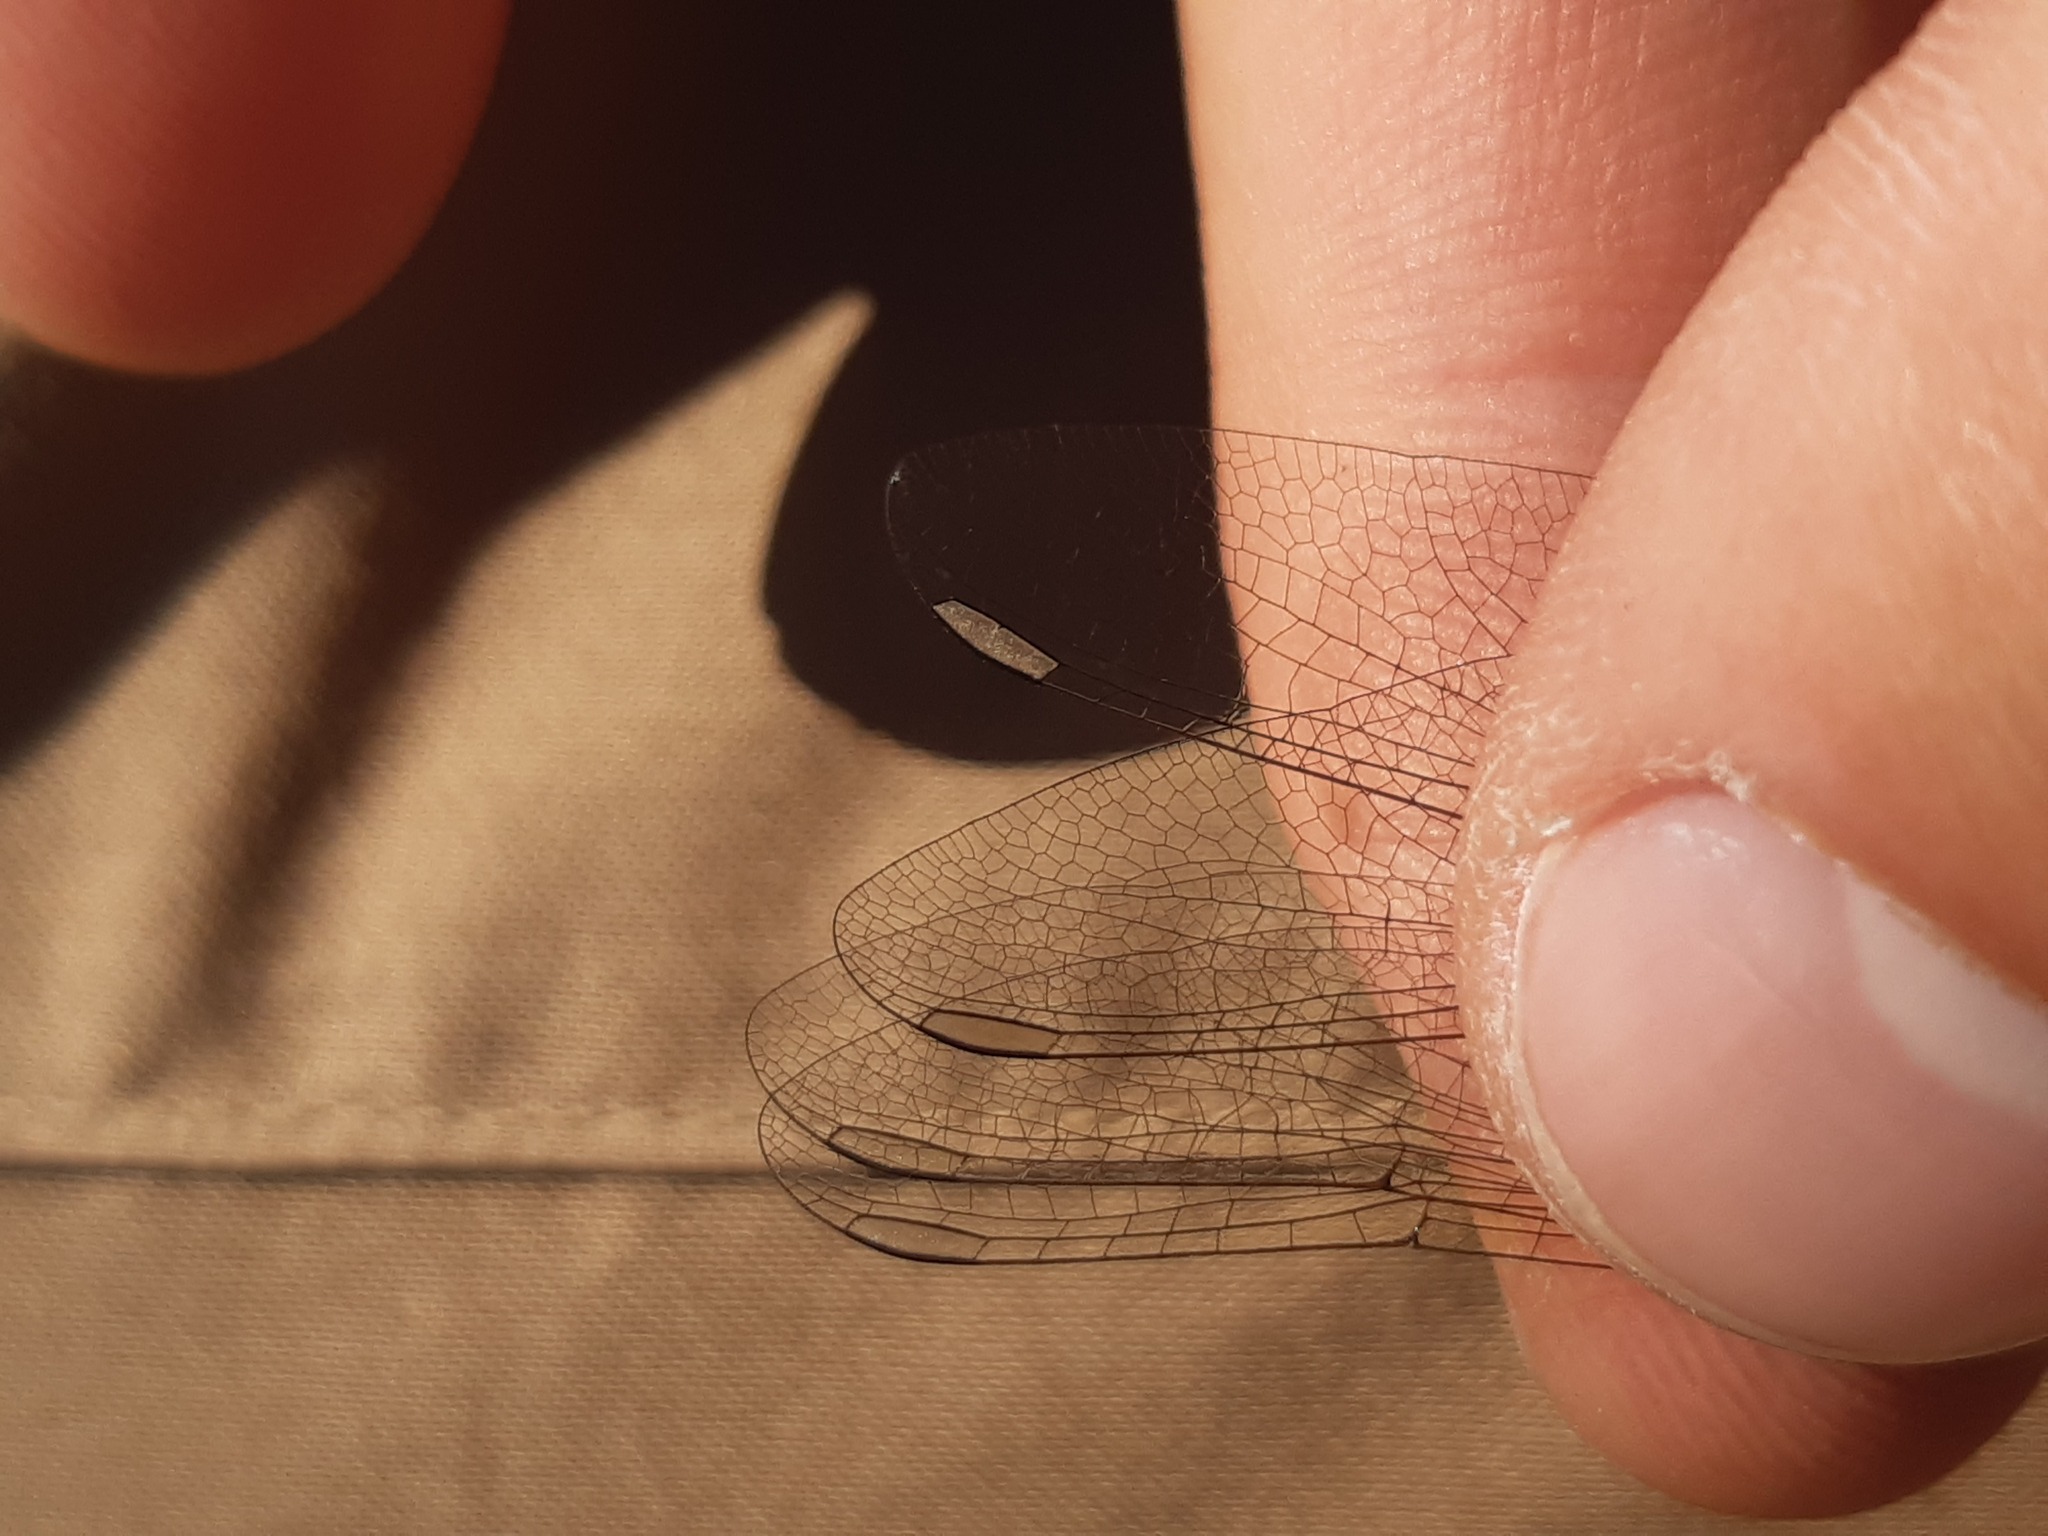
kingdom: Animalia
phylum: Arthropoda
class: Insecta
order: Odonata
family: Libellulidae
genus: Sympetrum
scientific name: Sympetrum striolatum
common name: Common darter
